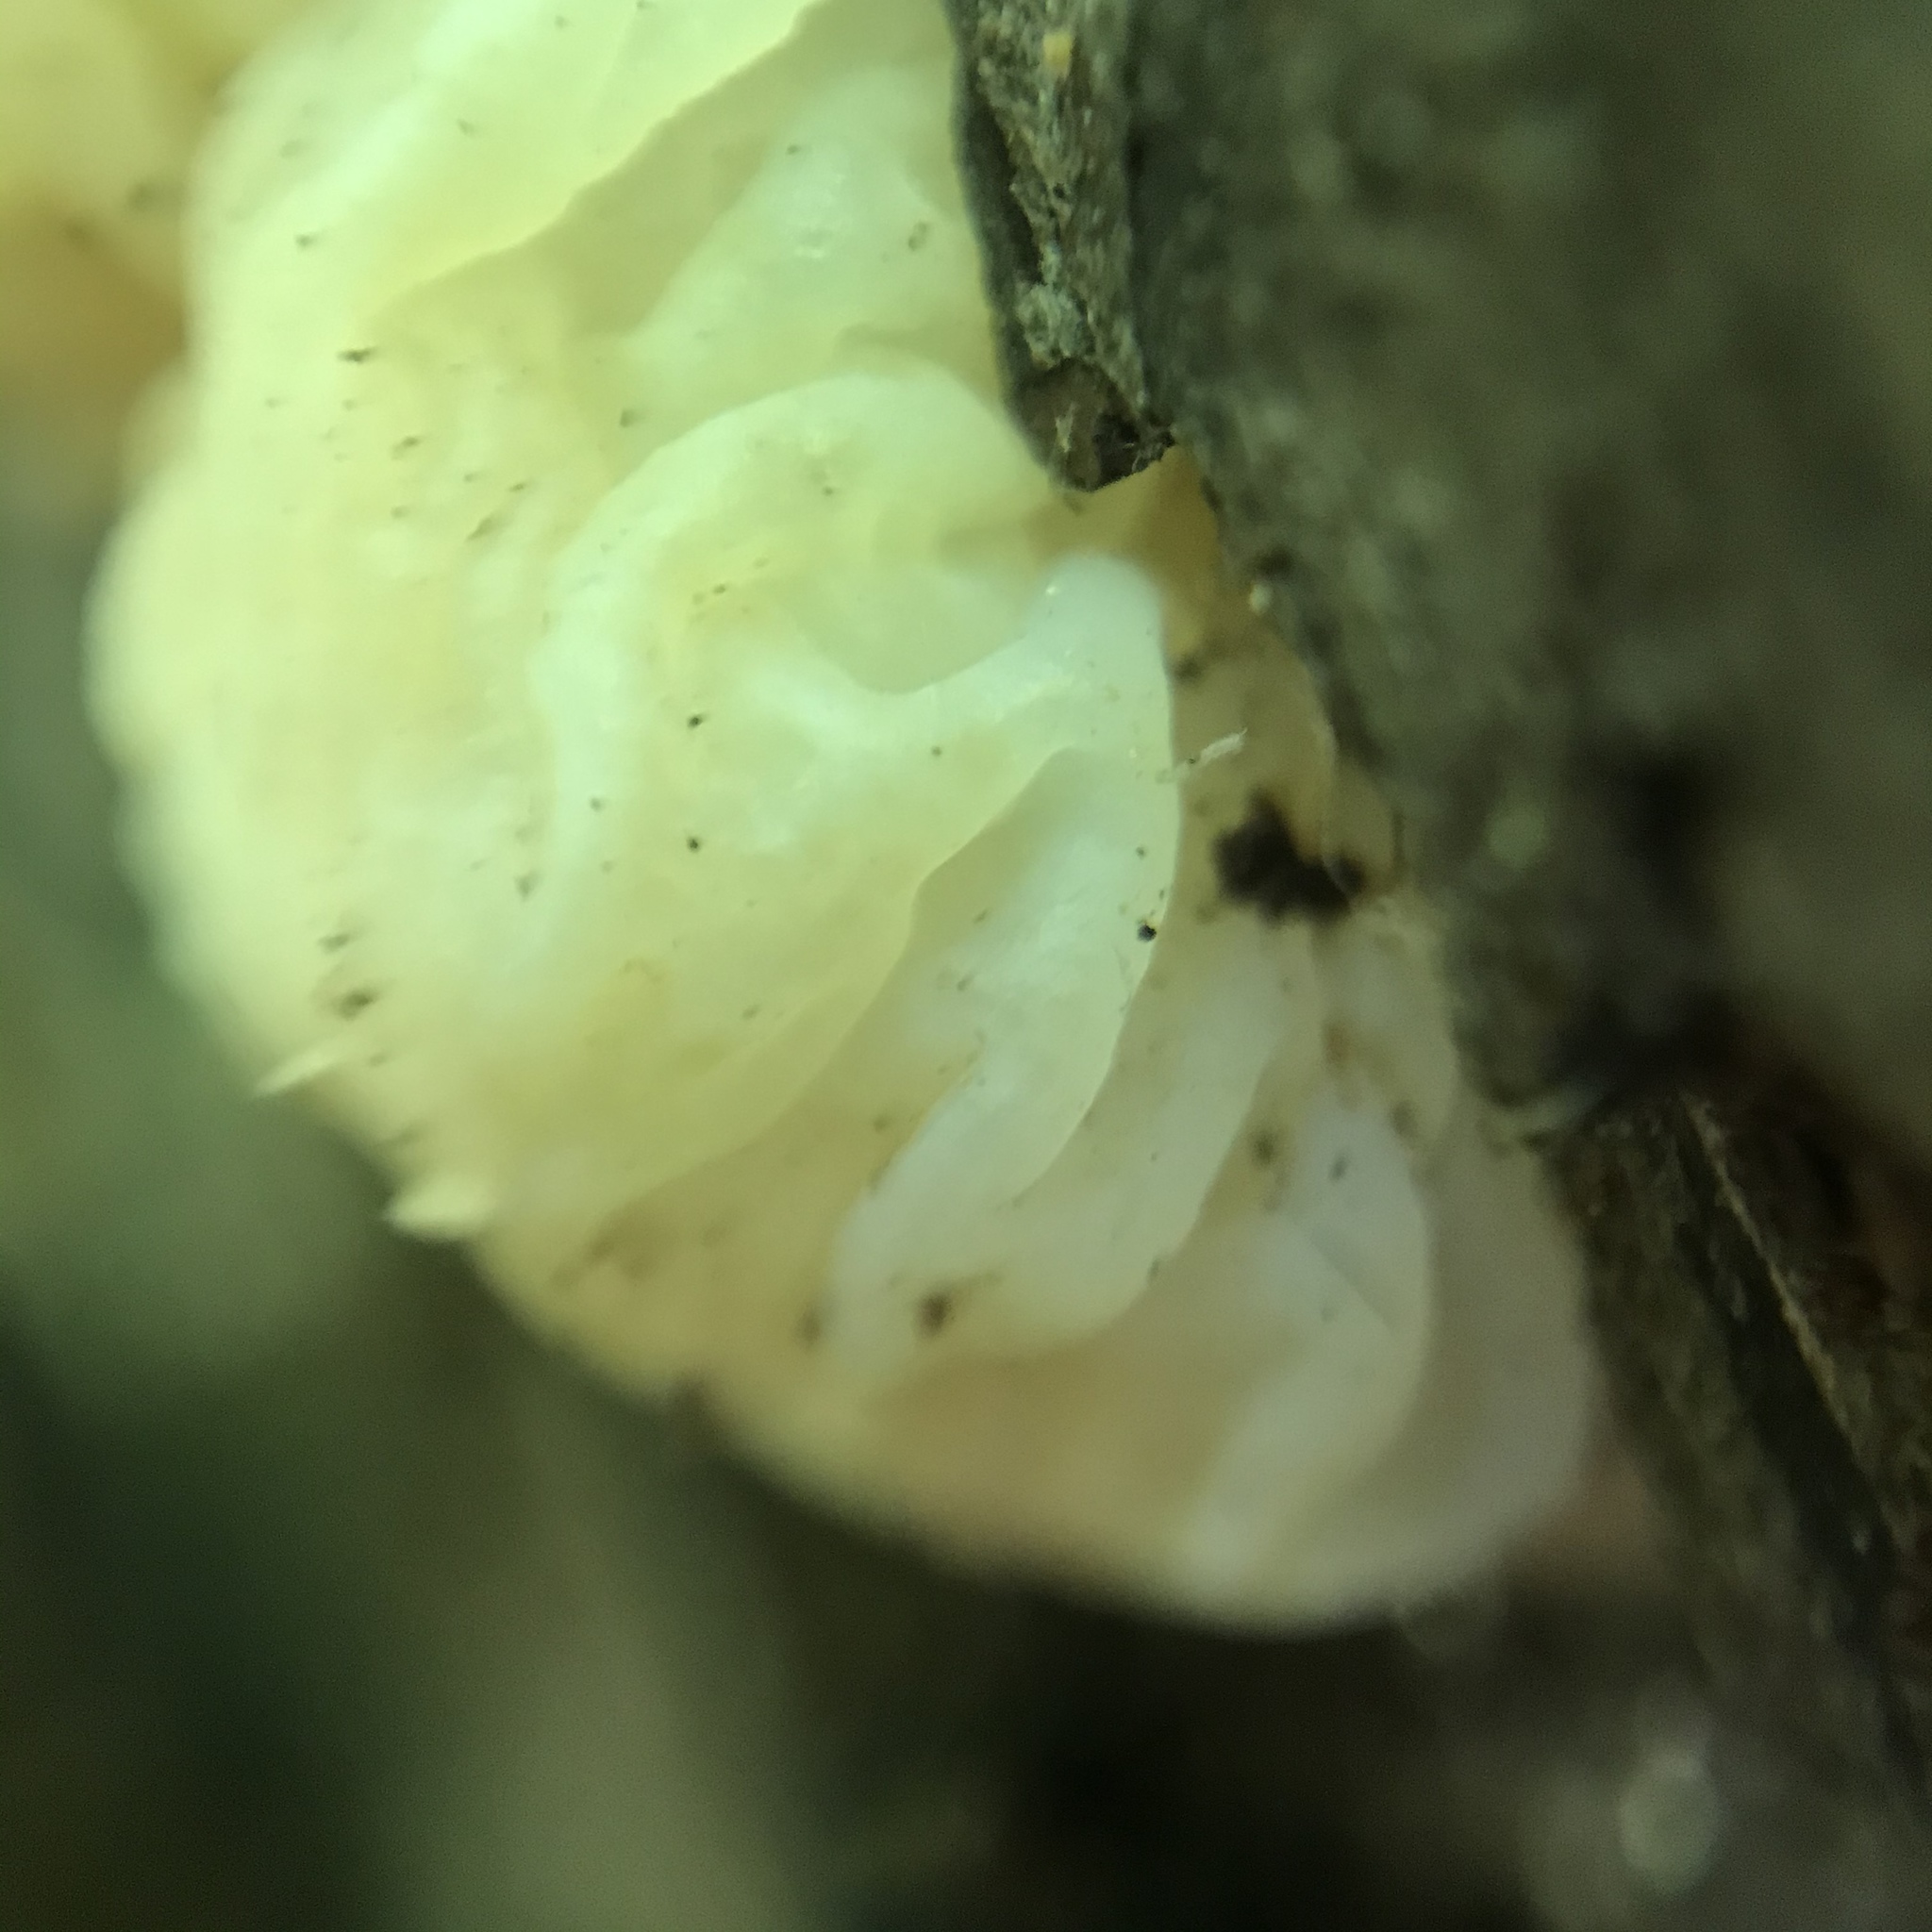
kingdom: Fungi
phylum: Basidiomycota
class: Agaricomycetes
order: Auriculariales
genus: Ductifera
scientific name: Ductifera pululahuana
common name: White jelly fungus
